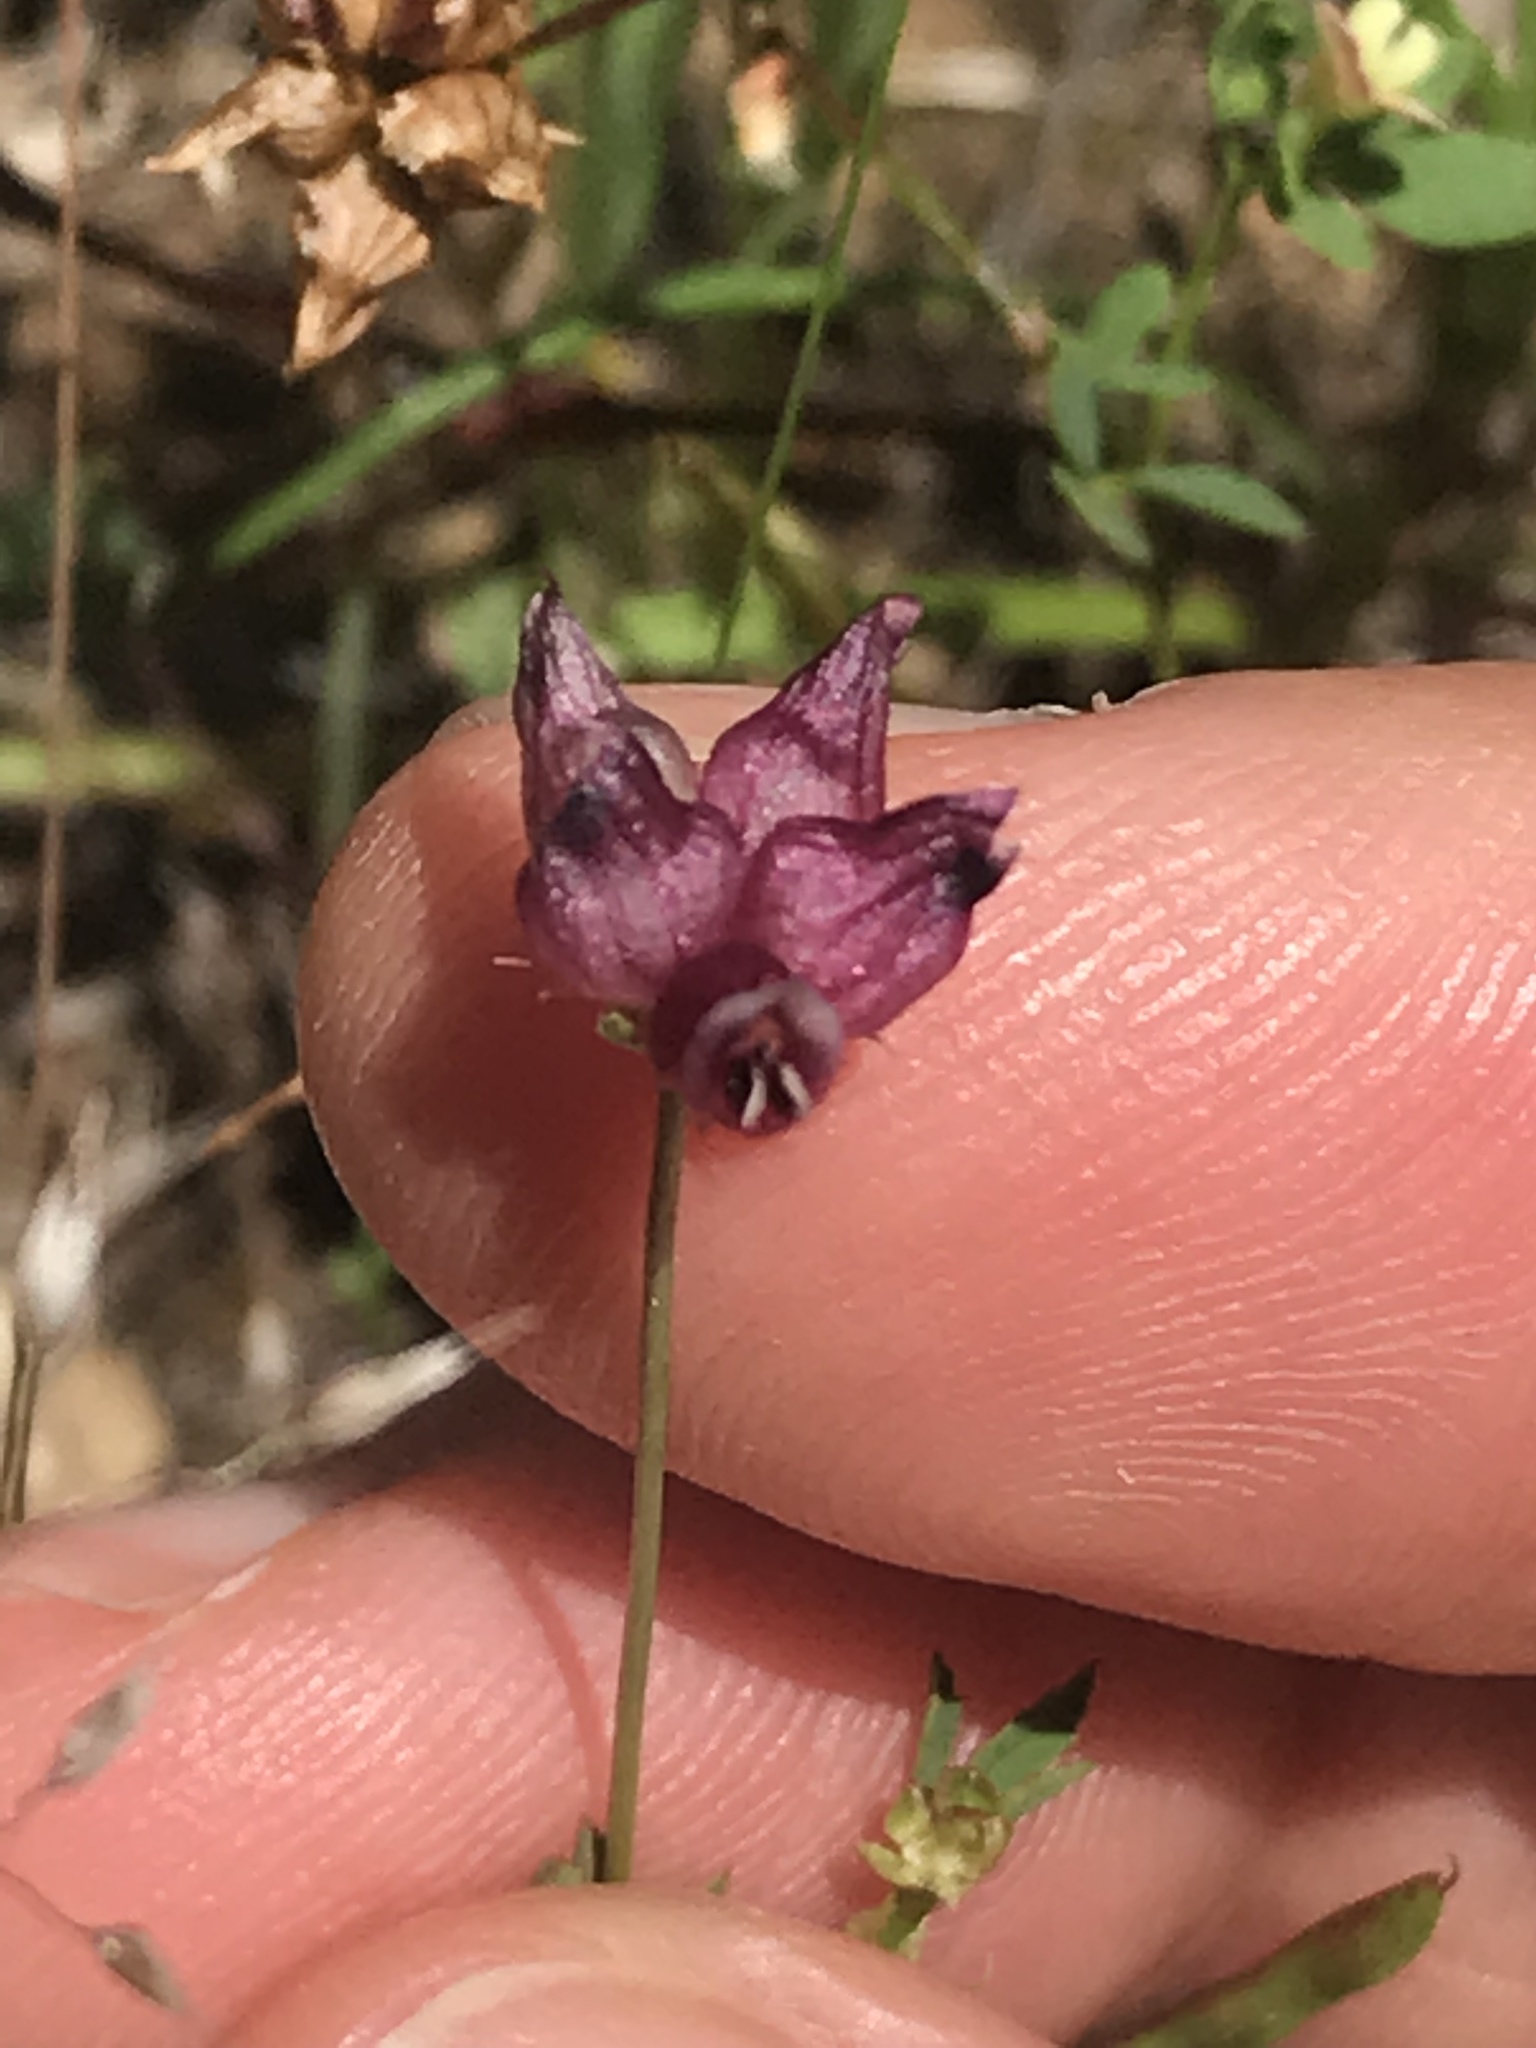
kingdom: Plantae
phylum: Tracheophyta
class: Magnoliopsida
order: Fabales
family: Fabaceae
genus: Trifolium
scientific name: Trifolium depauperatum
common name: Poverty clover
